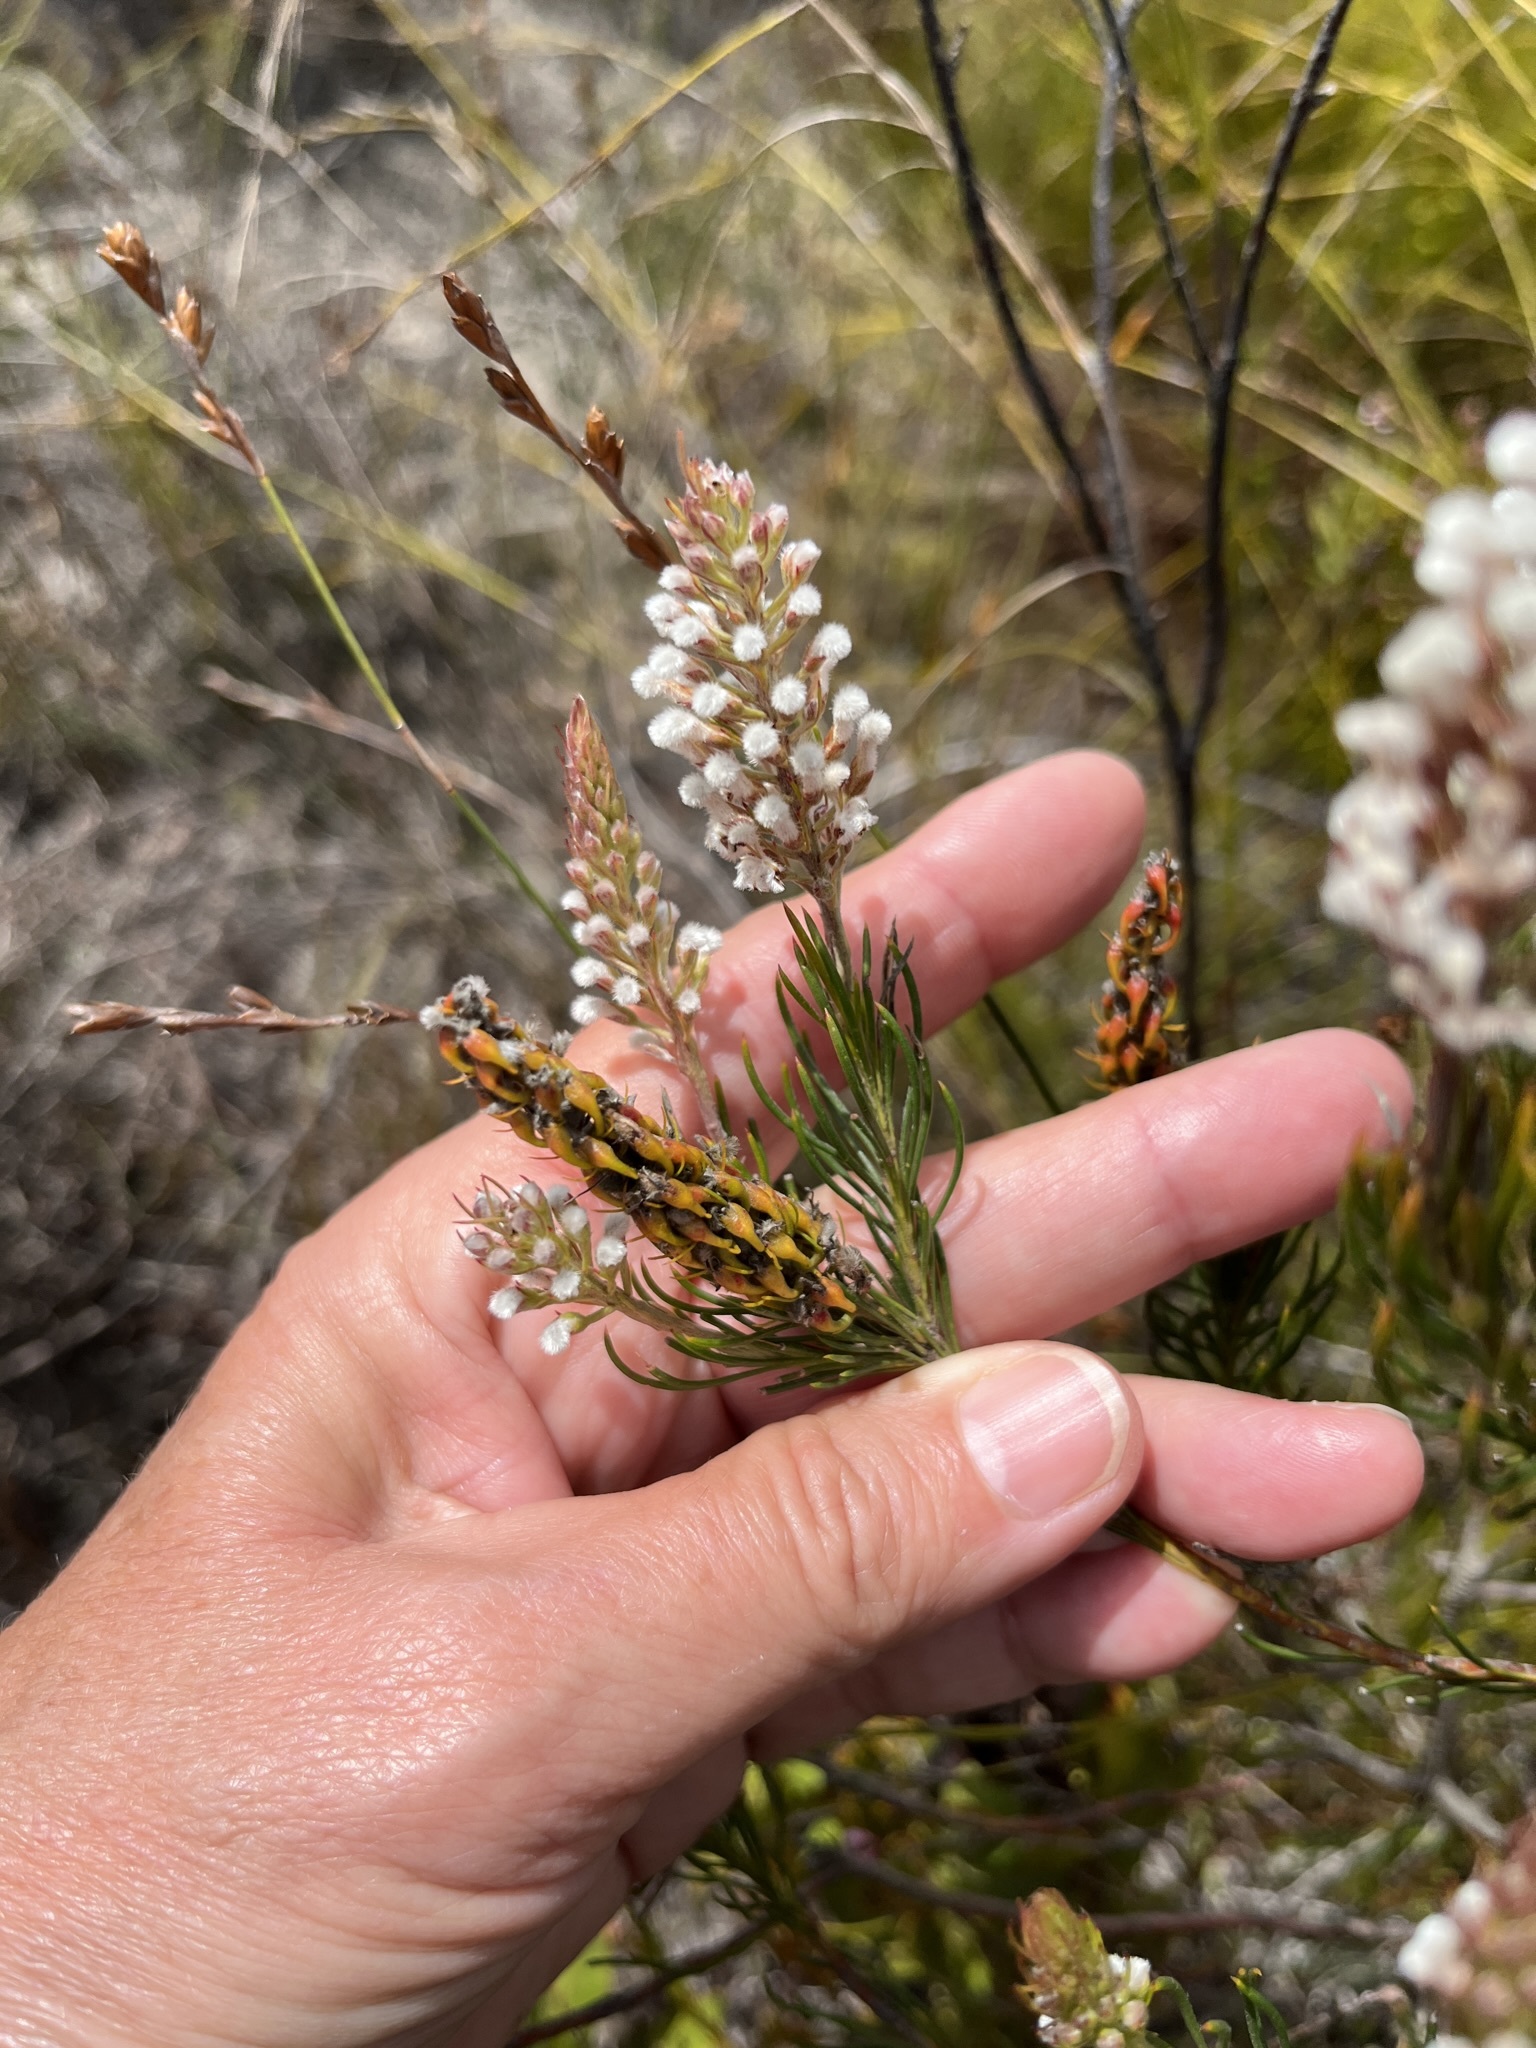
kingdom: Plantae
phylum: Tracheophyta
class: Magnoliopsida
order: Proteales
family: Proteaceae
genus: Spatalla
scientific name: Spatalla curvifolia
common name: White-stalked spoon
